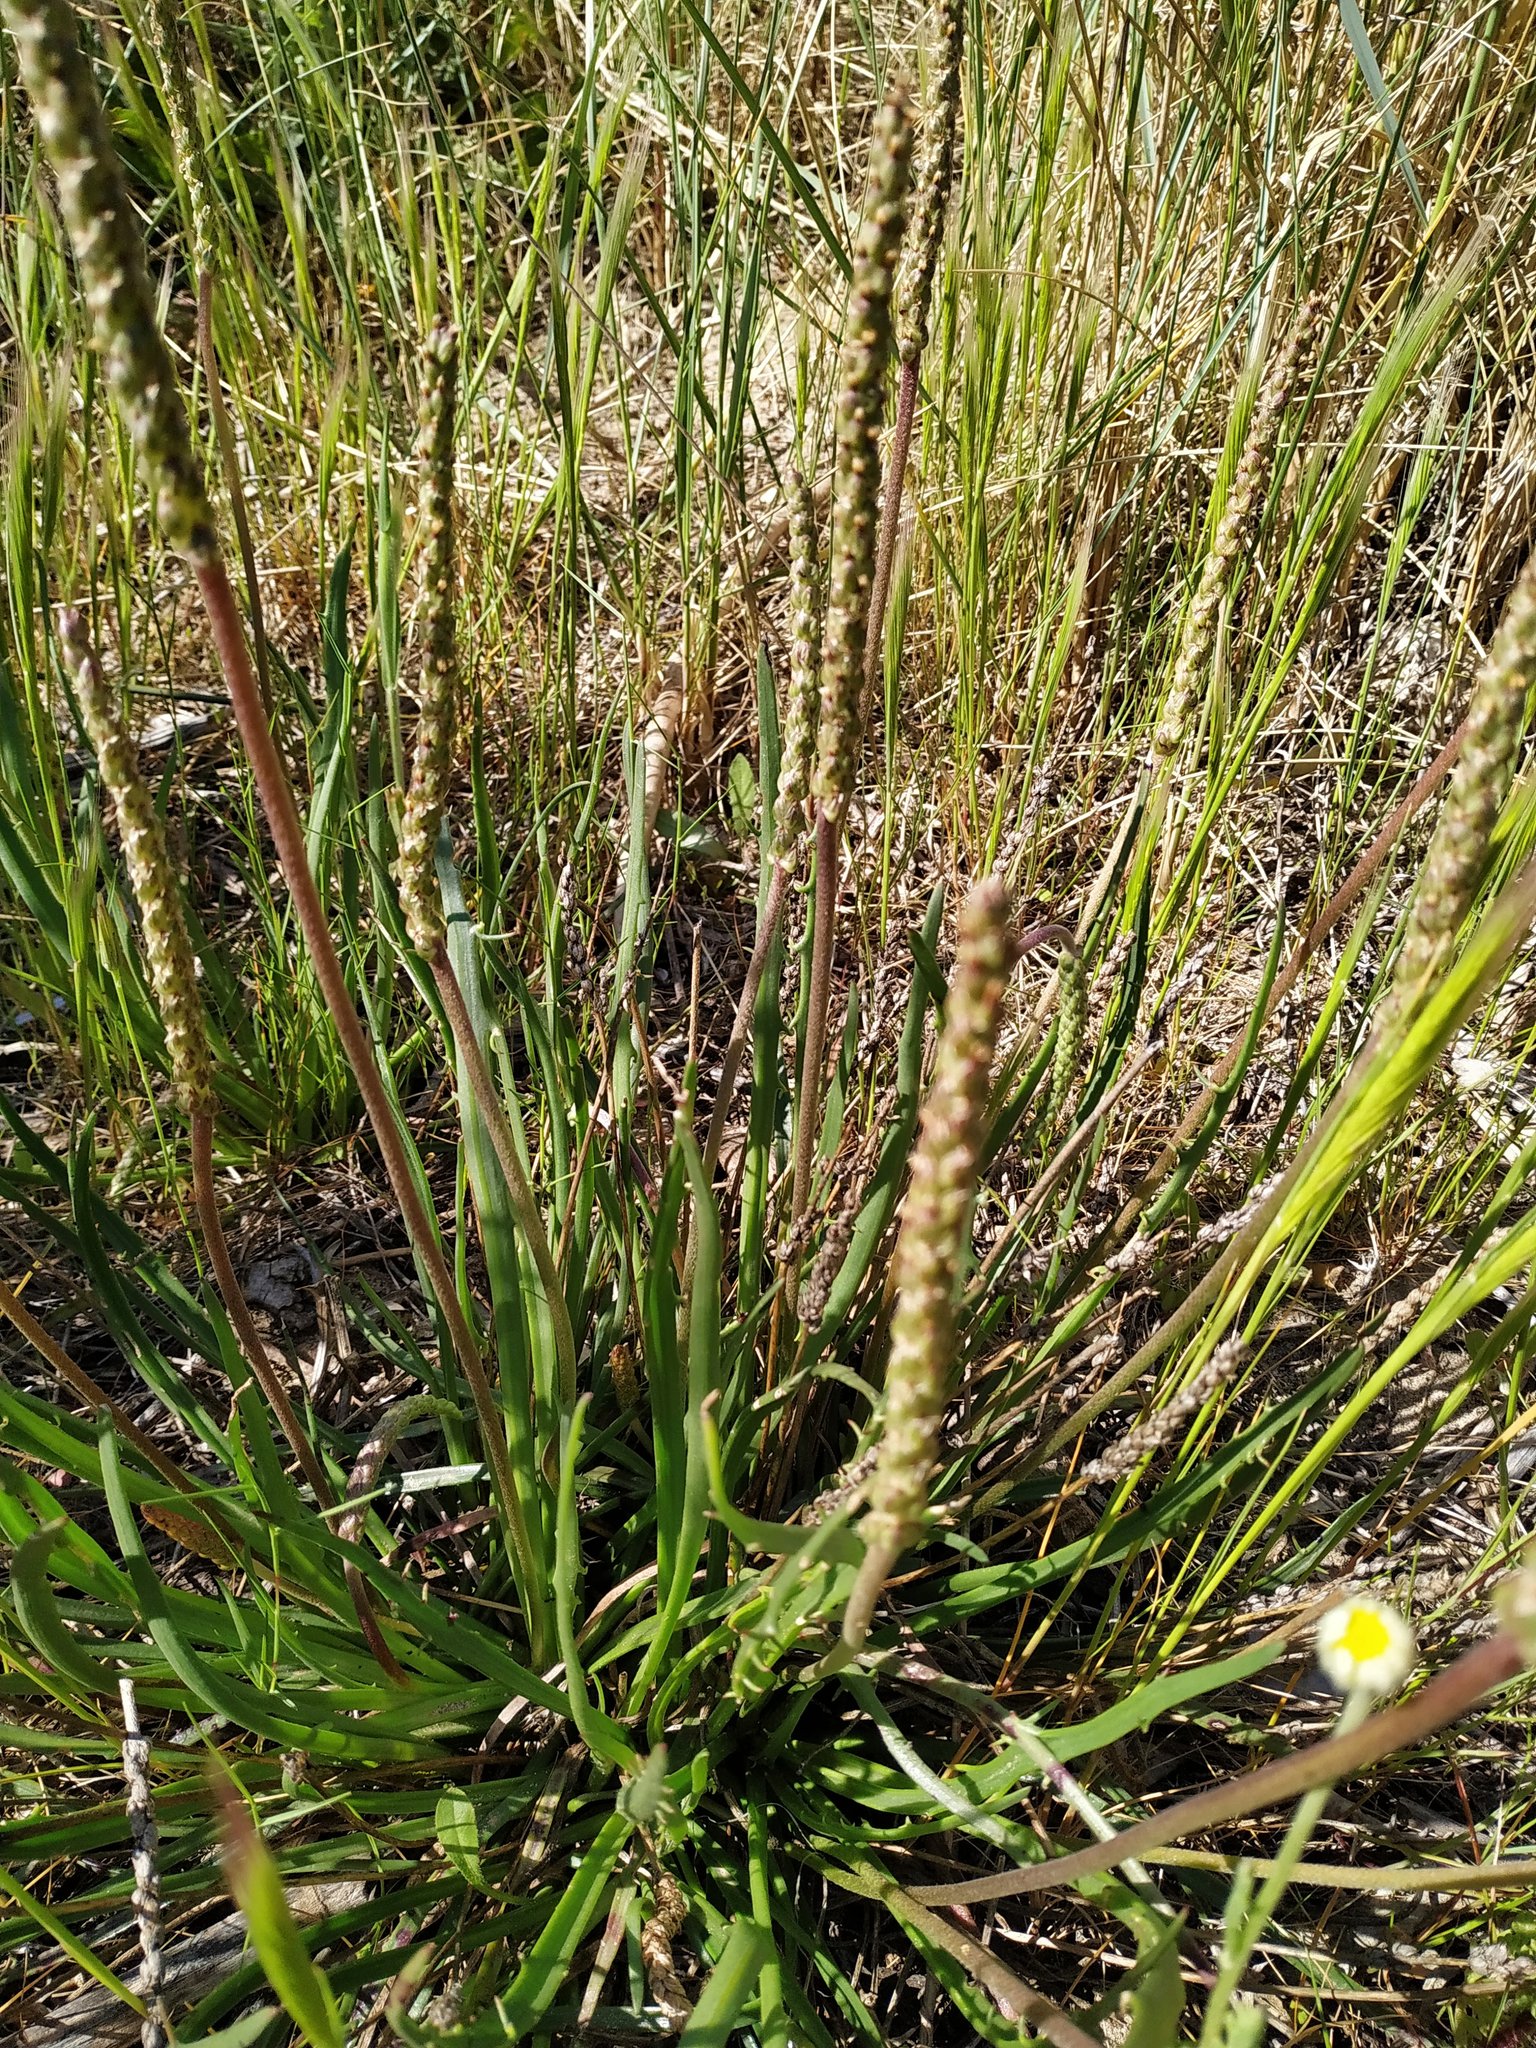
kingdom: Plantae
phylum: Tracheophyta
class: Magnoliopsida
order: Lamiales
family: Plantaginaceae
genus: Plantago
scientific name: Plantago maritima
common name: Sea plantain
